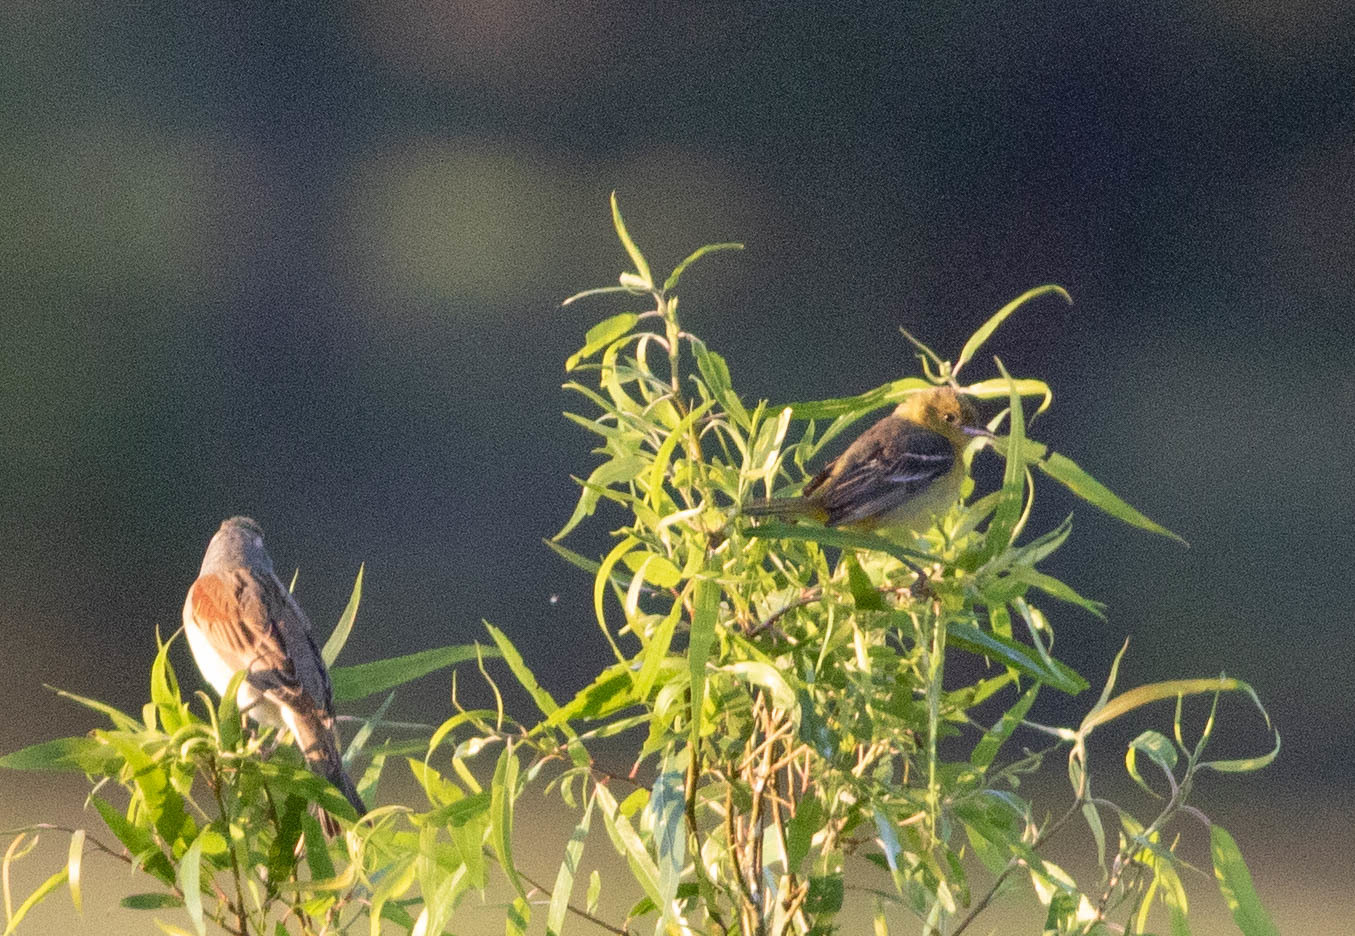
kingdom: Animalia
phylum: Chordata
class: Aves
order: Passeriformes
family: Cardinalidae
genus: Spiza
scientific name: Spiza americana
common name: Dickcissel
